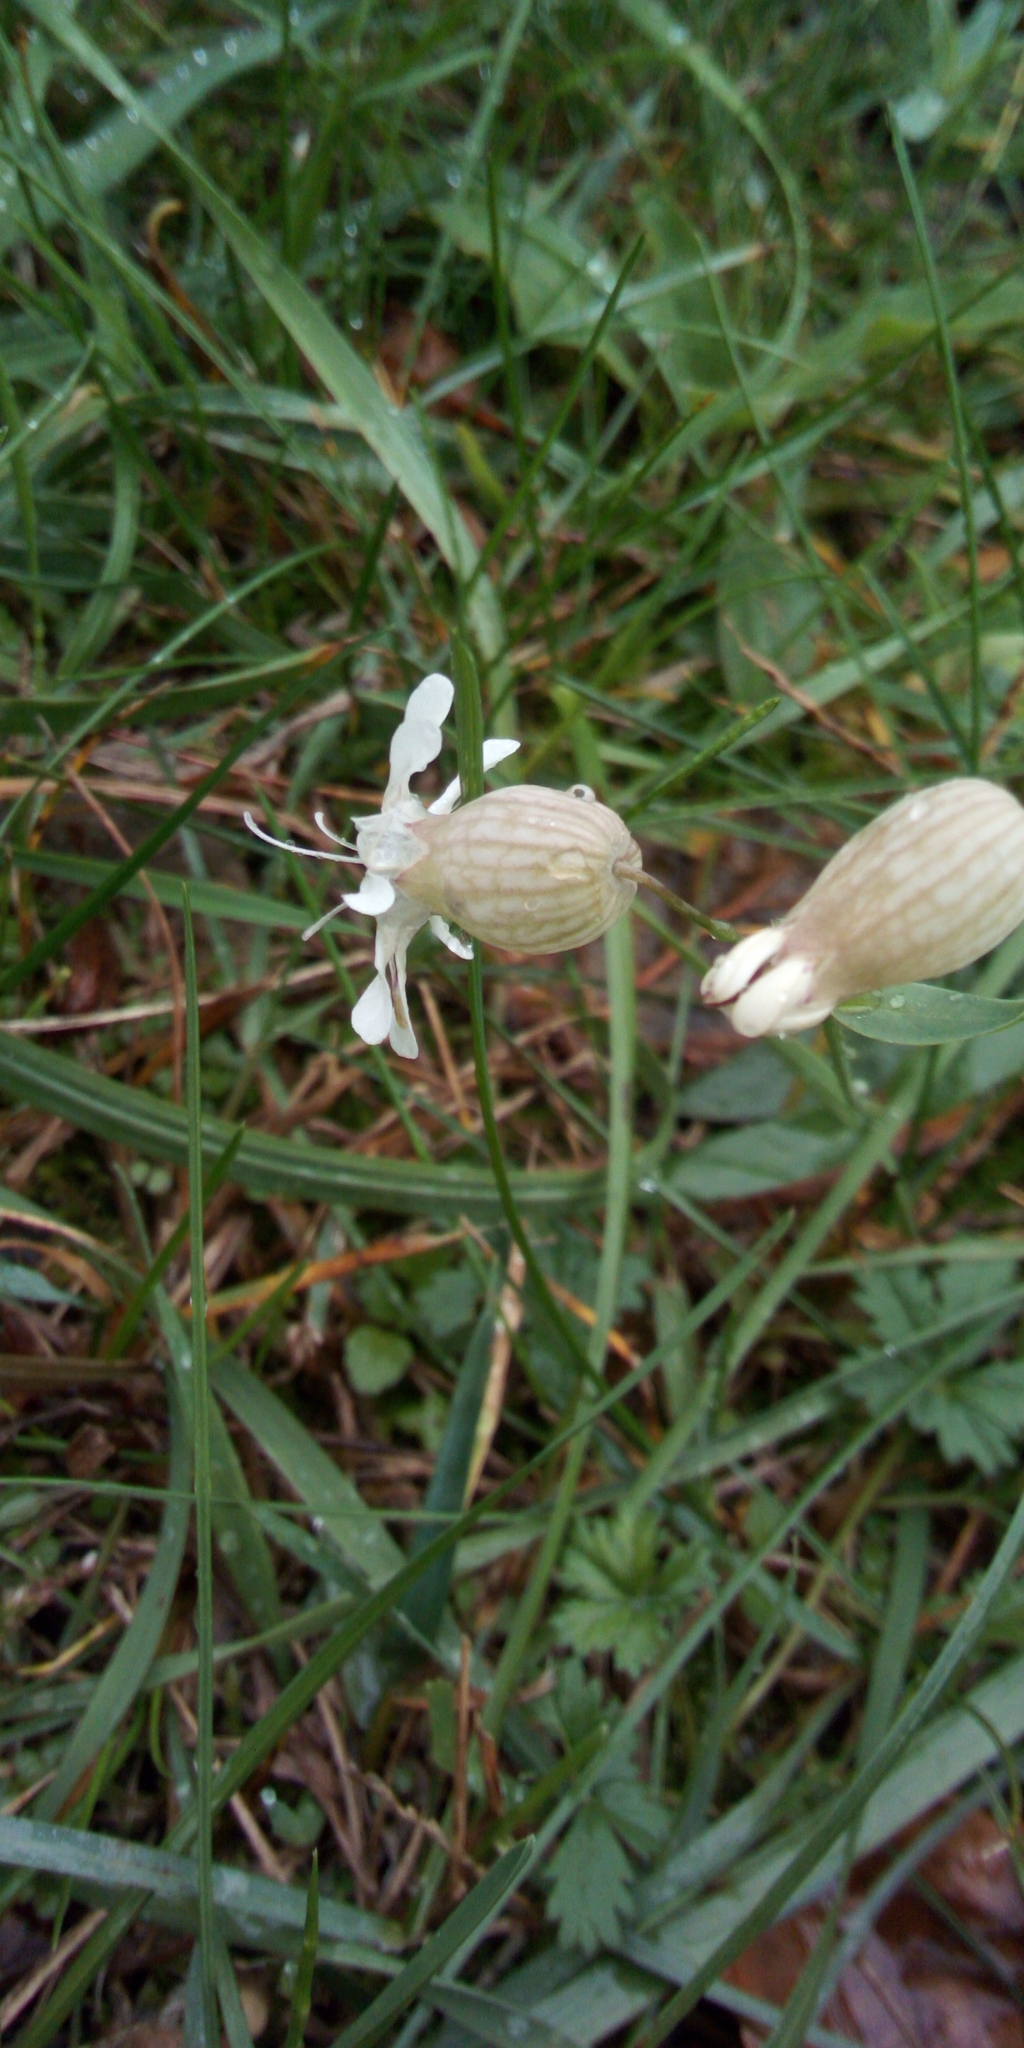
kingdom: Plantae
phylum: Tracheophyta
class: Magnoliopsida
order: Caryophyllales
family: Caryophyllaceae
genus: Silene
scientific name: Silene vulgaris
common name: Bladder campion
